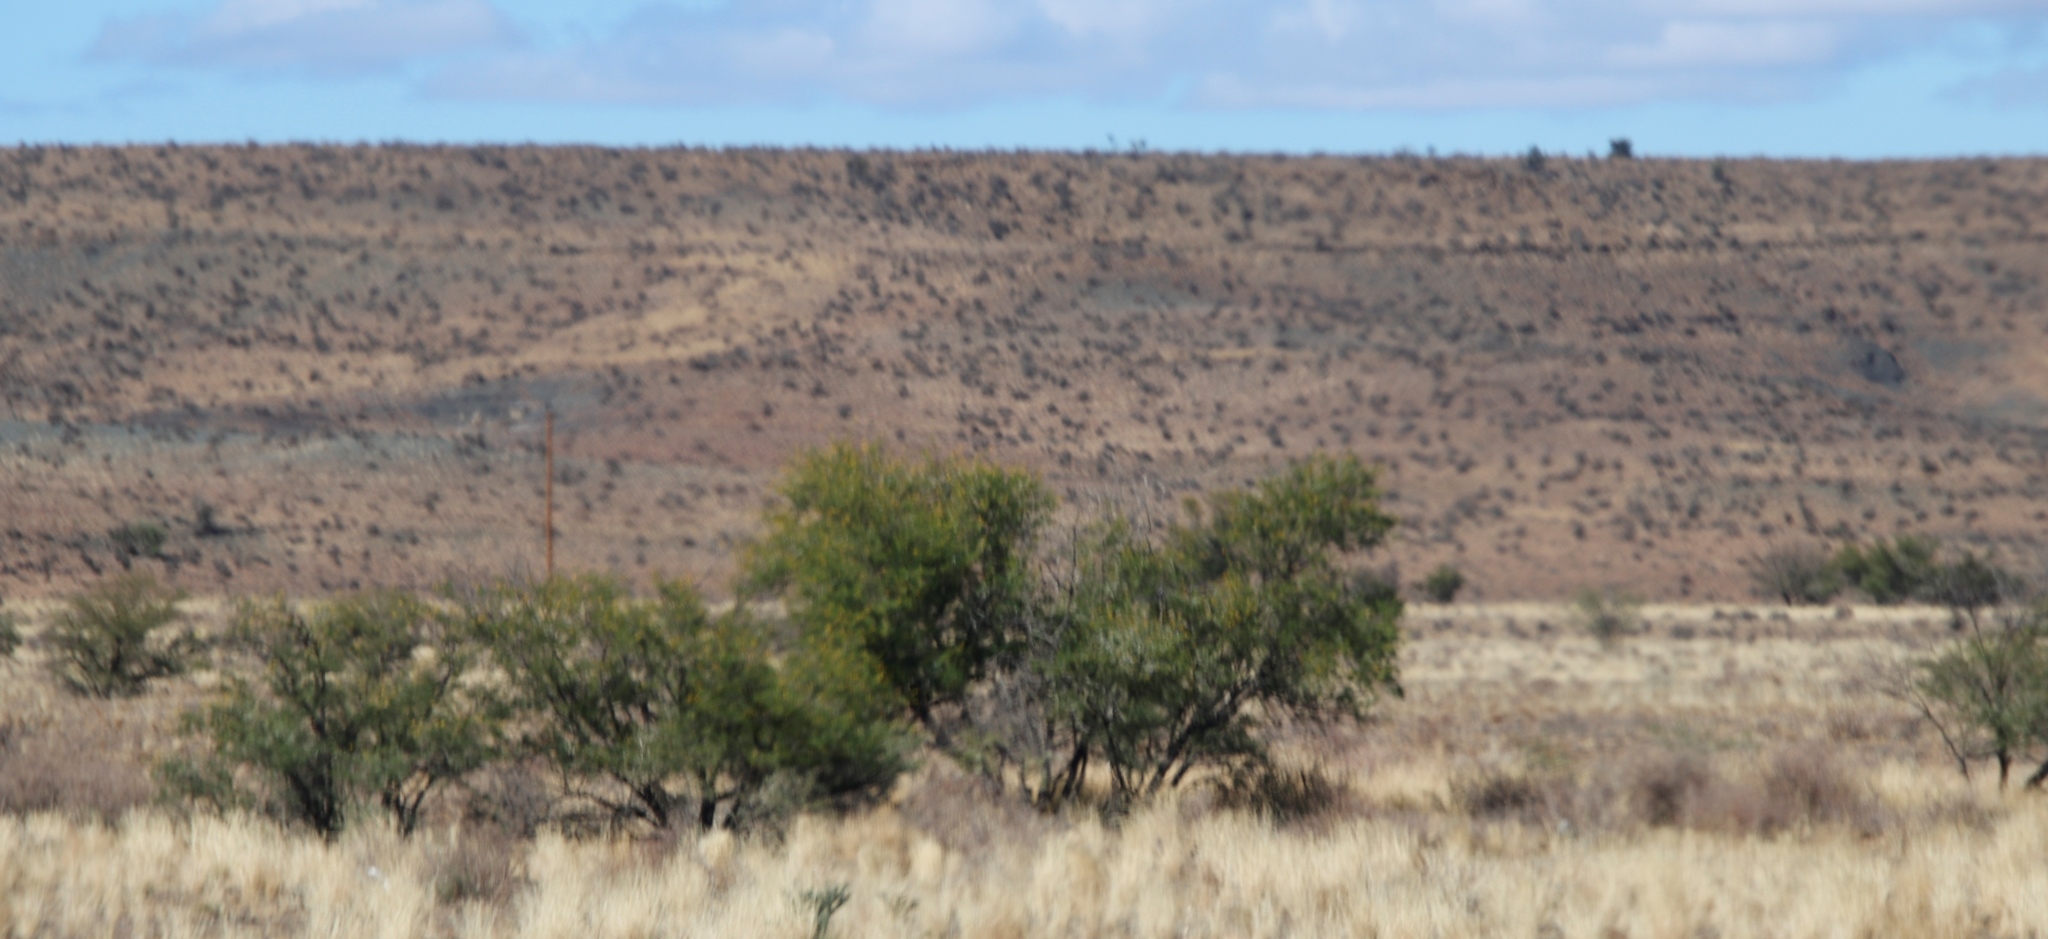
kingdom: Plantae
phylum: Tracheophyta
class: Magnoliopsida
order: Fabales
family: Fabaceae
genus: Vachellia
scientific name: Vachellia karroo
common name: Sweet thorn
